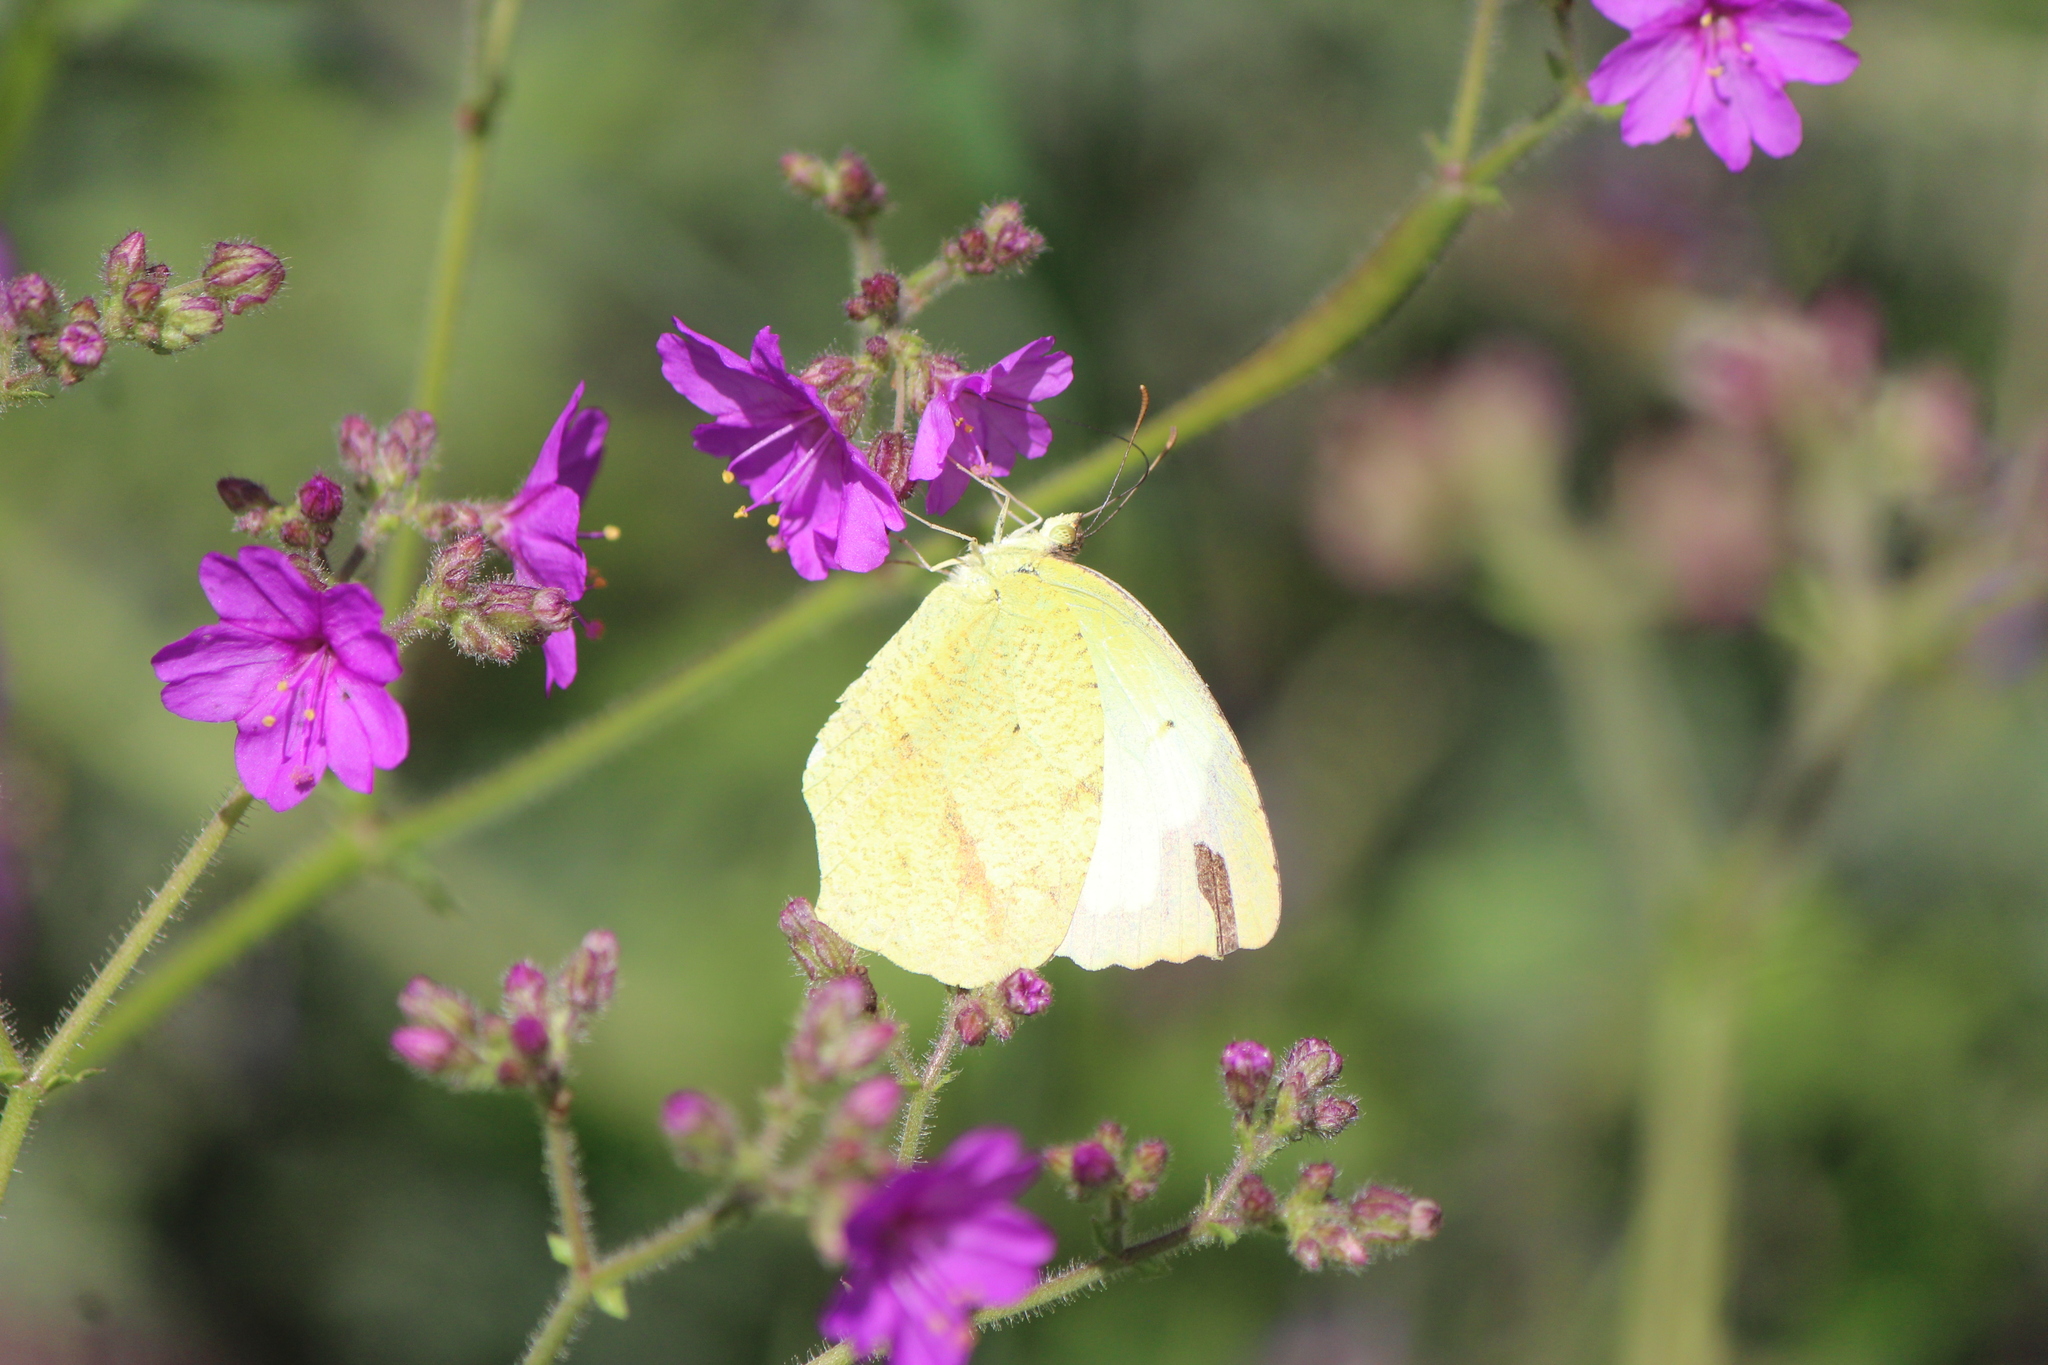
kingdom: Animalia
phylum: Arthropoda
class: Insecta
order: Lepidoptera
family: Pieridae
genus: Abaeis
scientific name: Abaeis mexicana
